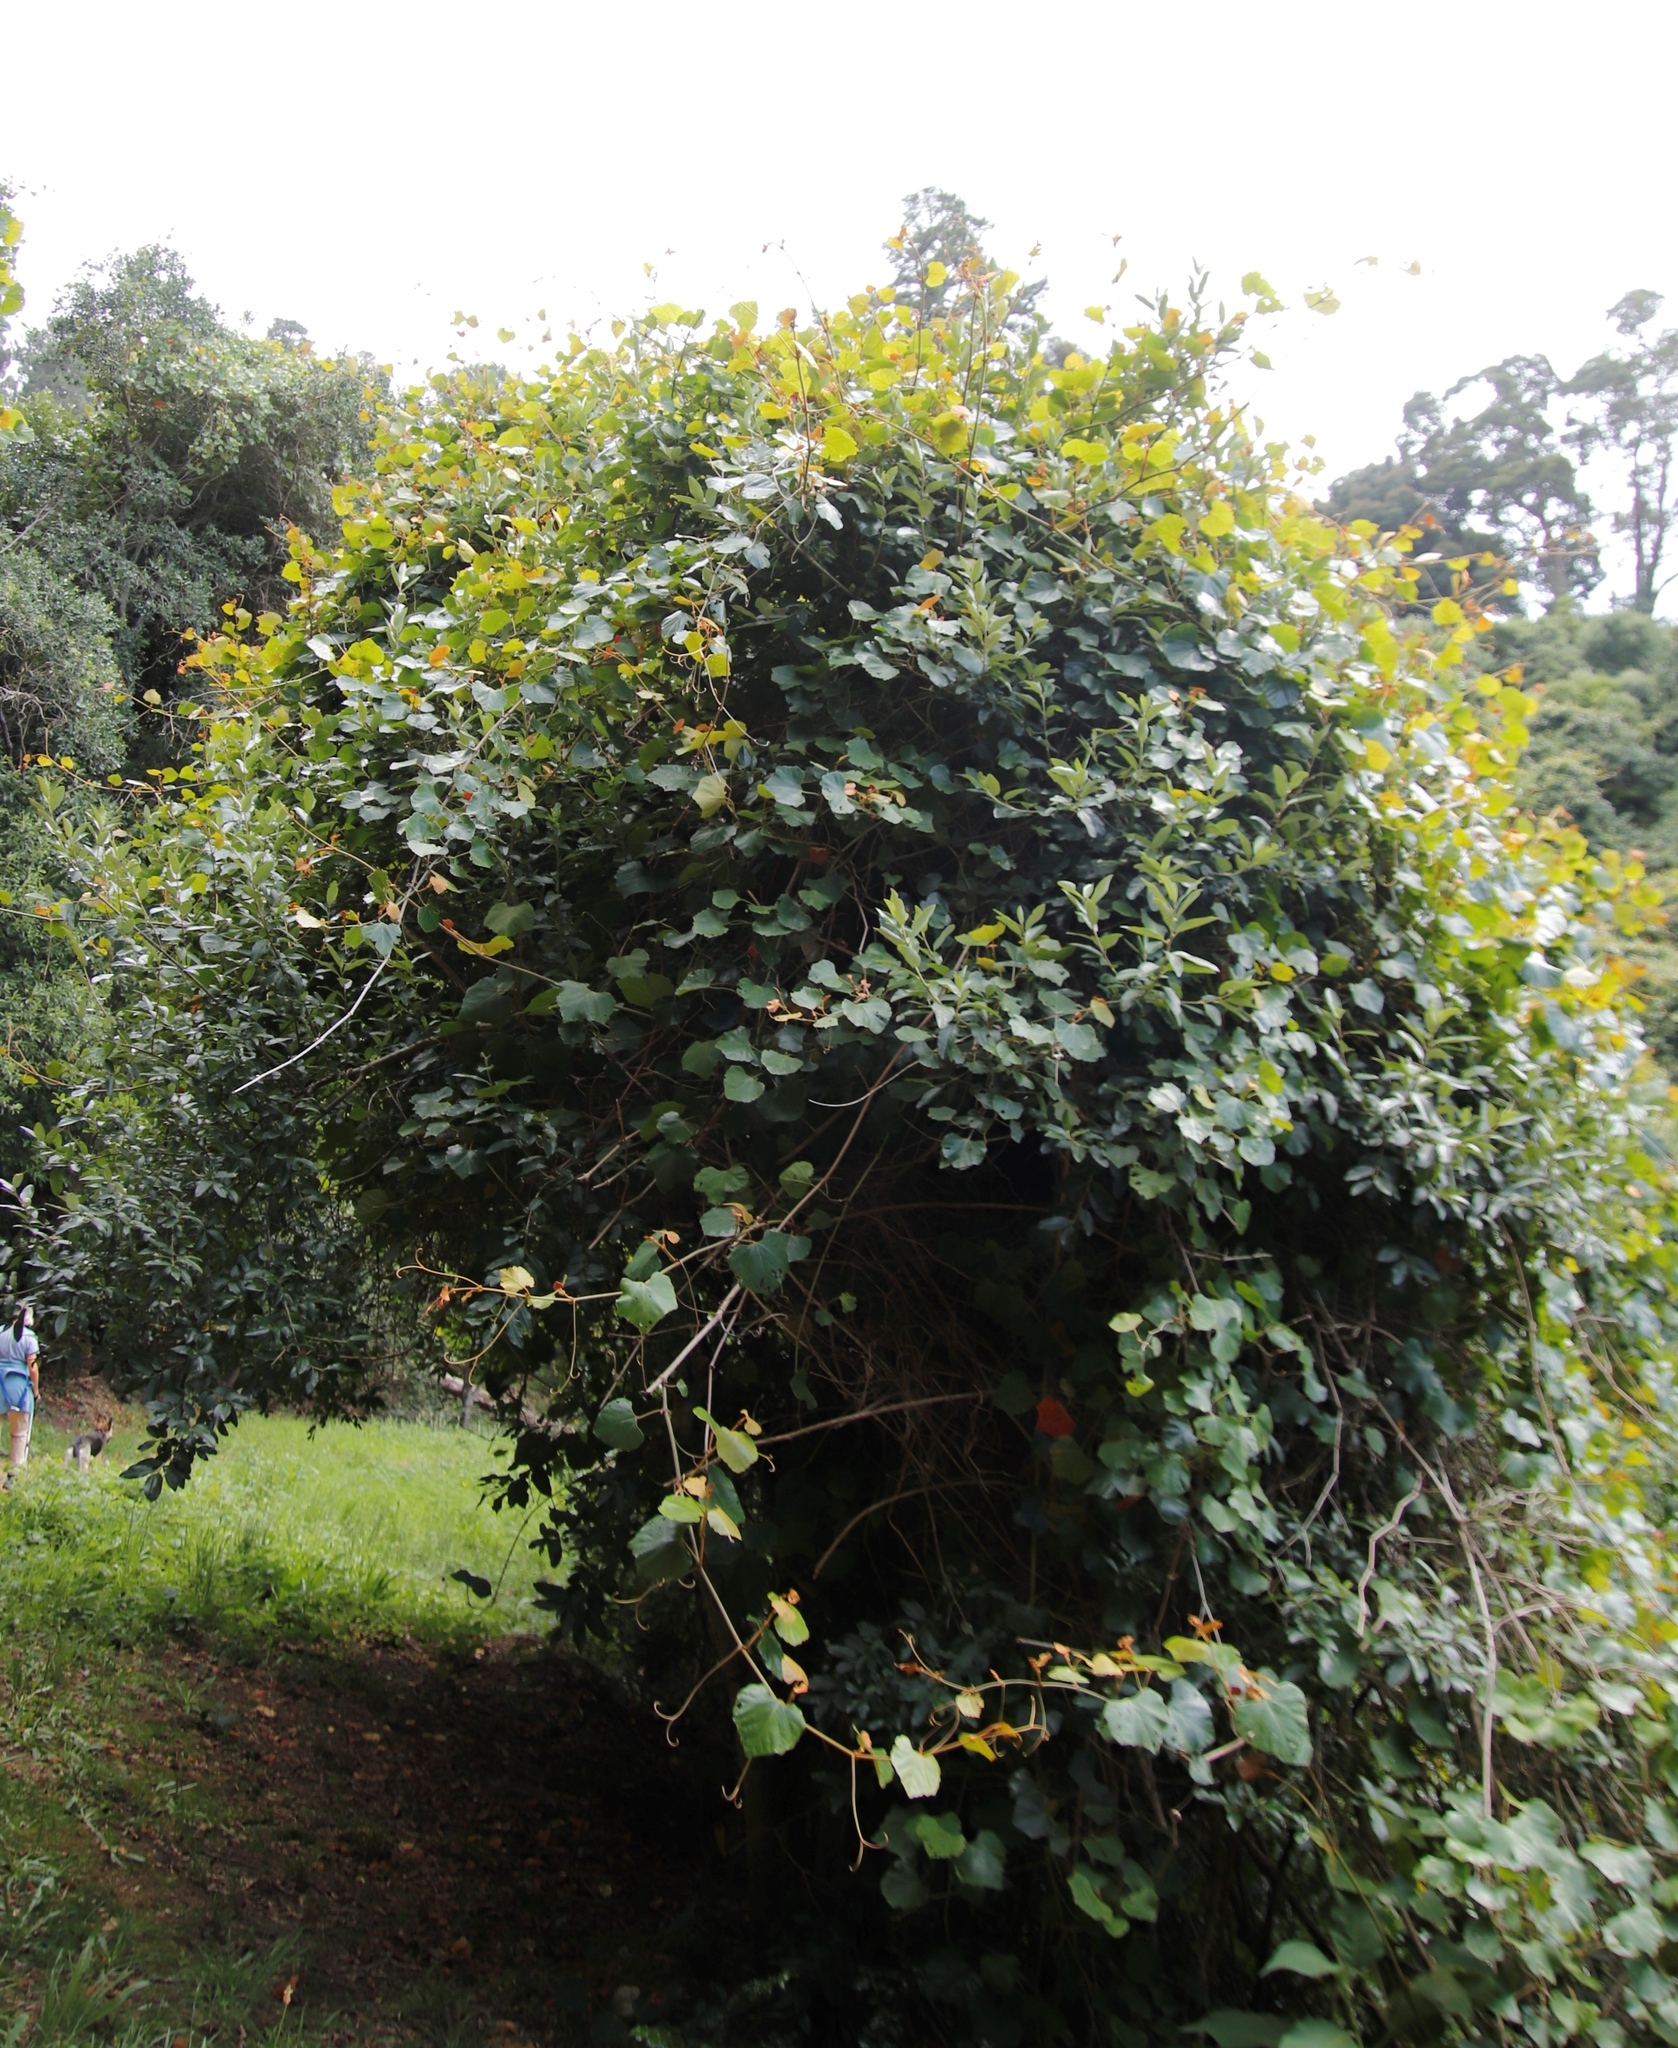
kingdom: Plantae
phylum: Tracheophyta
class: Magnoliopsida
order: Vitales
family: Vitaceae
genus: Rhoicissus
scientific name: Rhoicissus tomentosa
